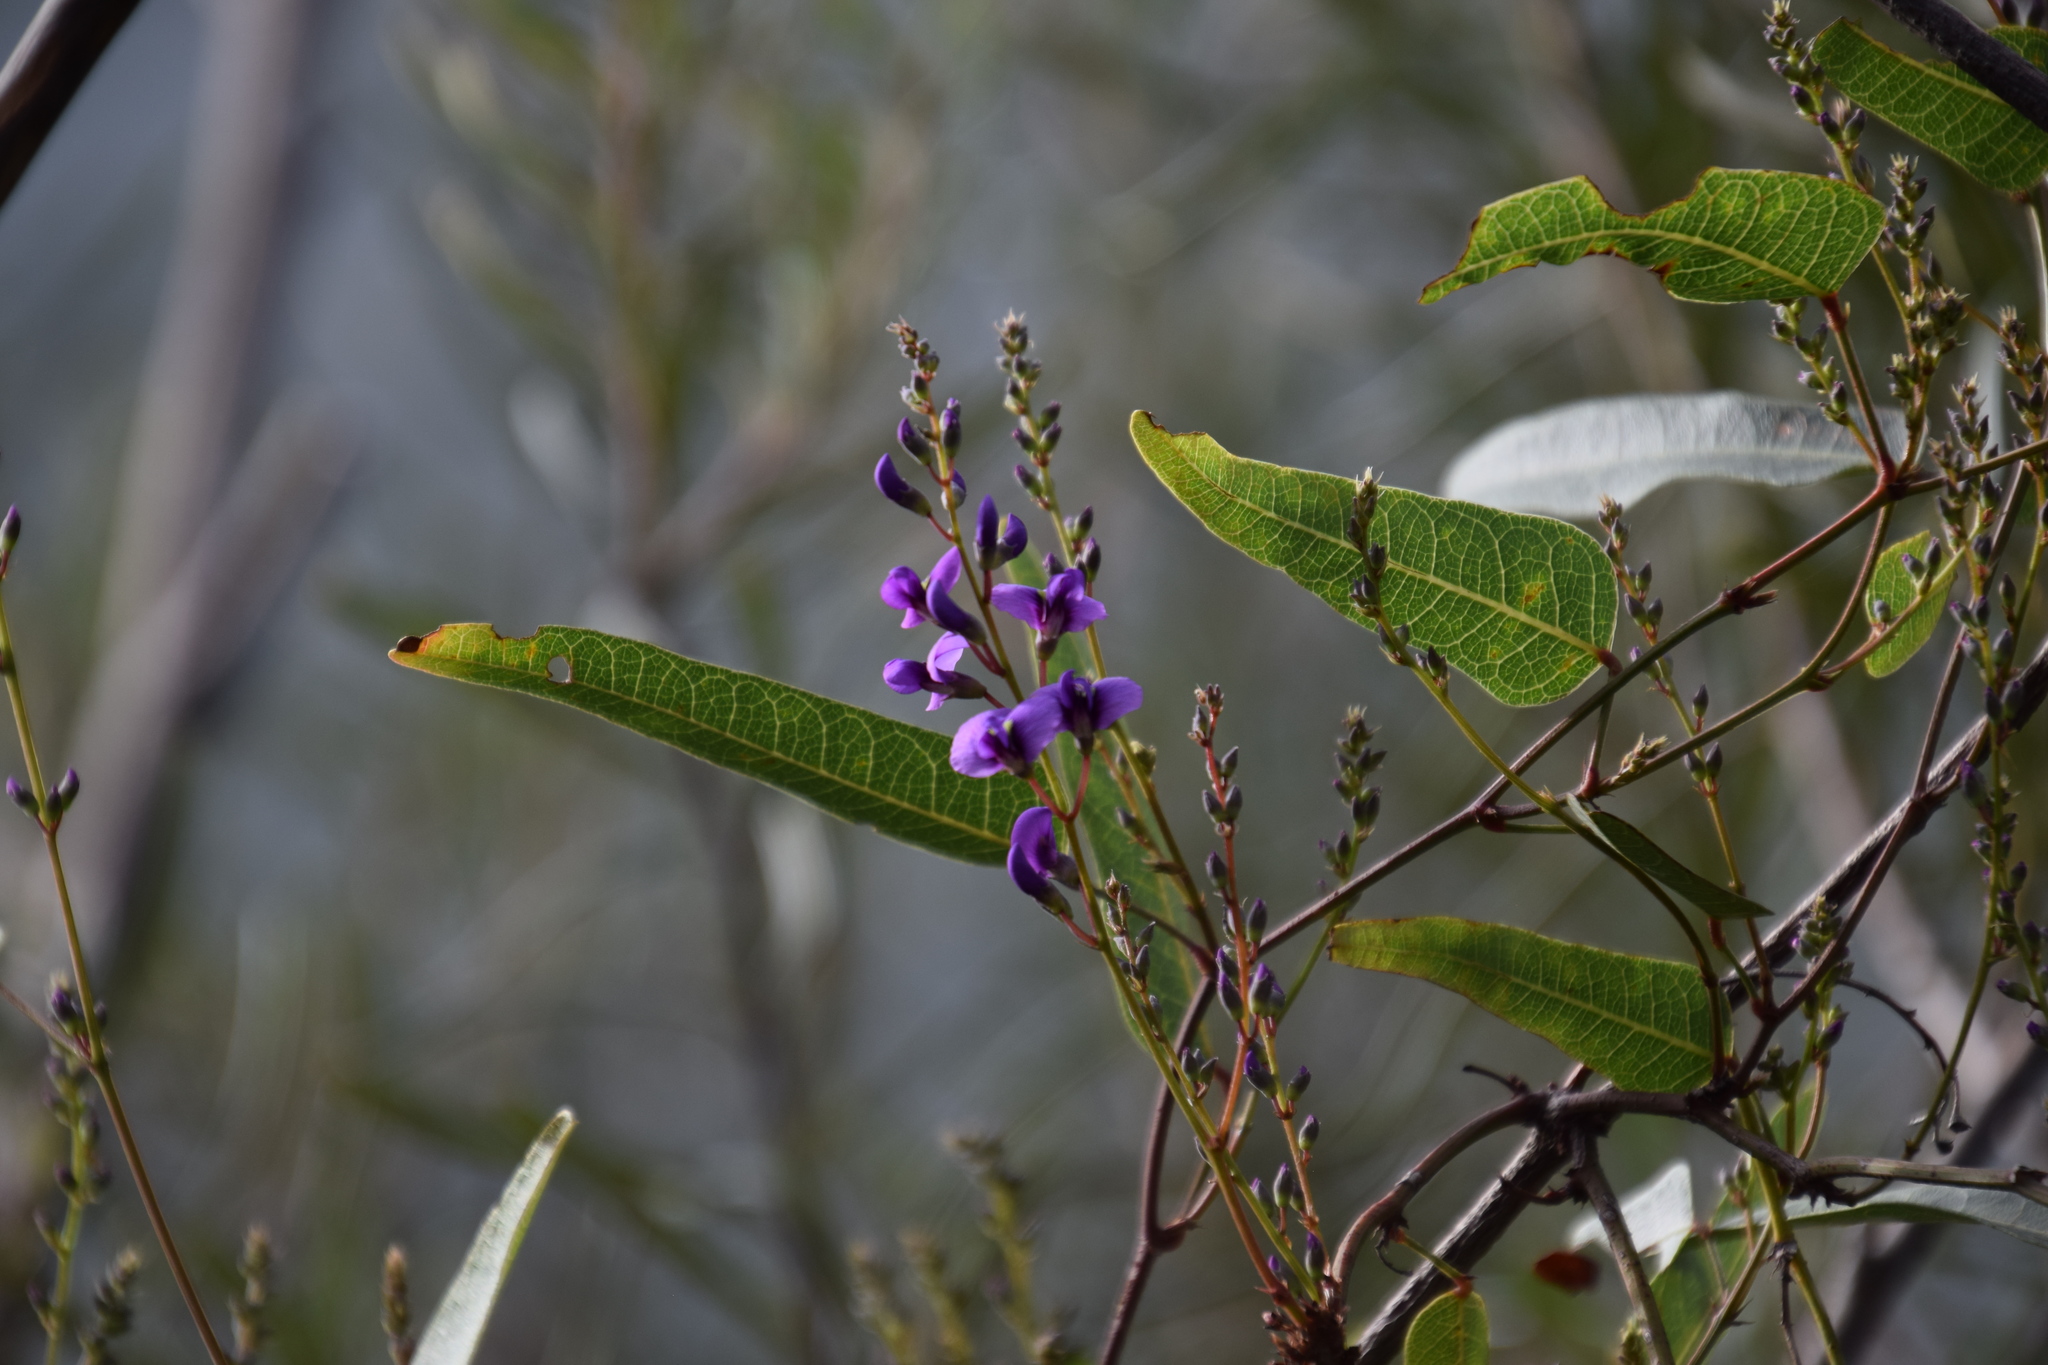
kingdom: Plantae
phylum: Tracheophyta
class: Magnoliopsida
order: Fabales
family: Fabaceae
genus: Hardenbergia
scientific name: Hardenbergia violacea
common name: Coral-pea
